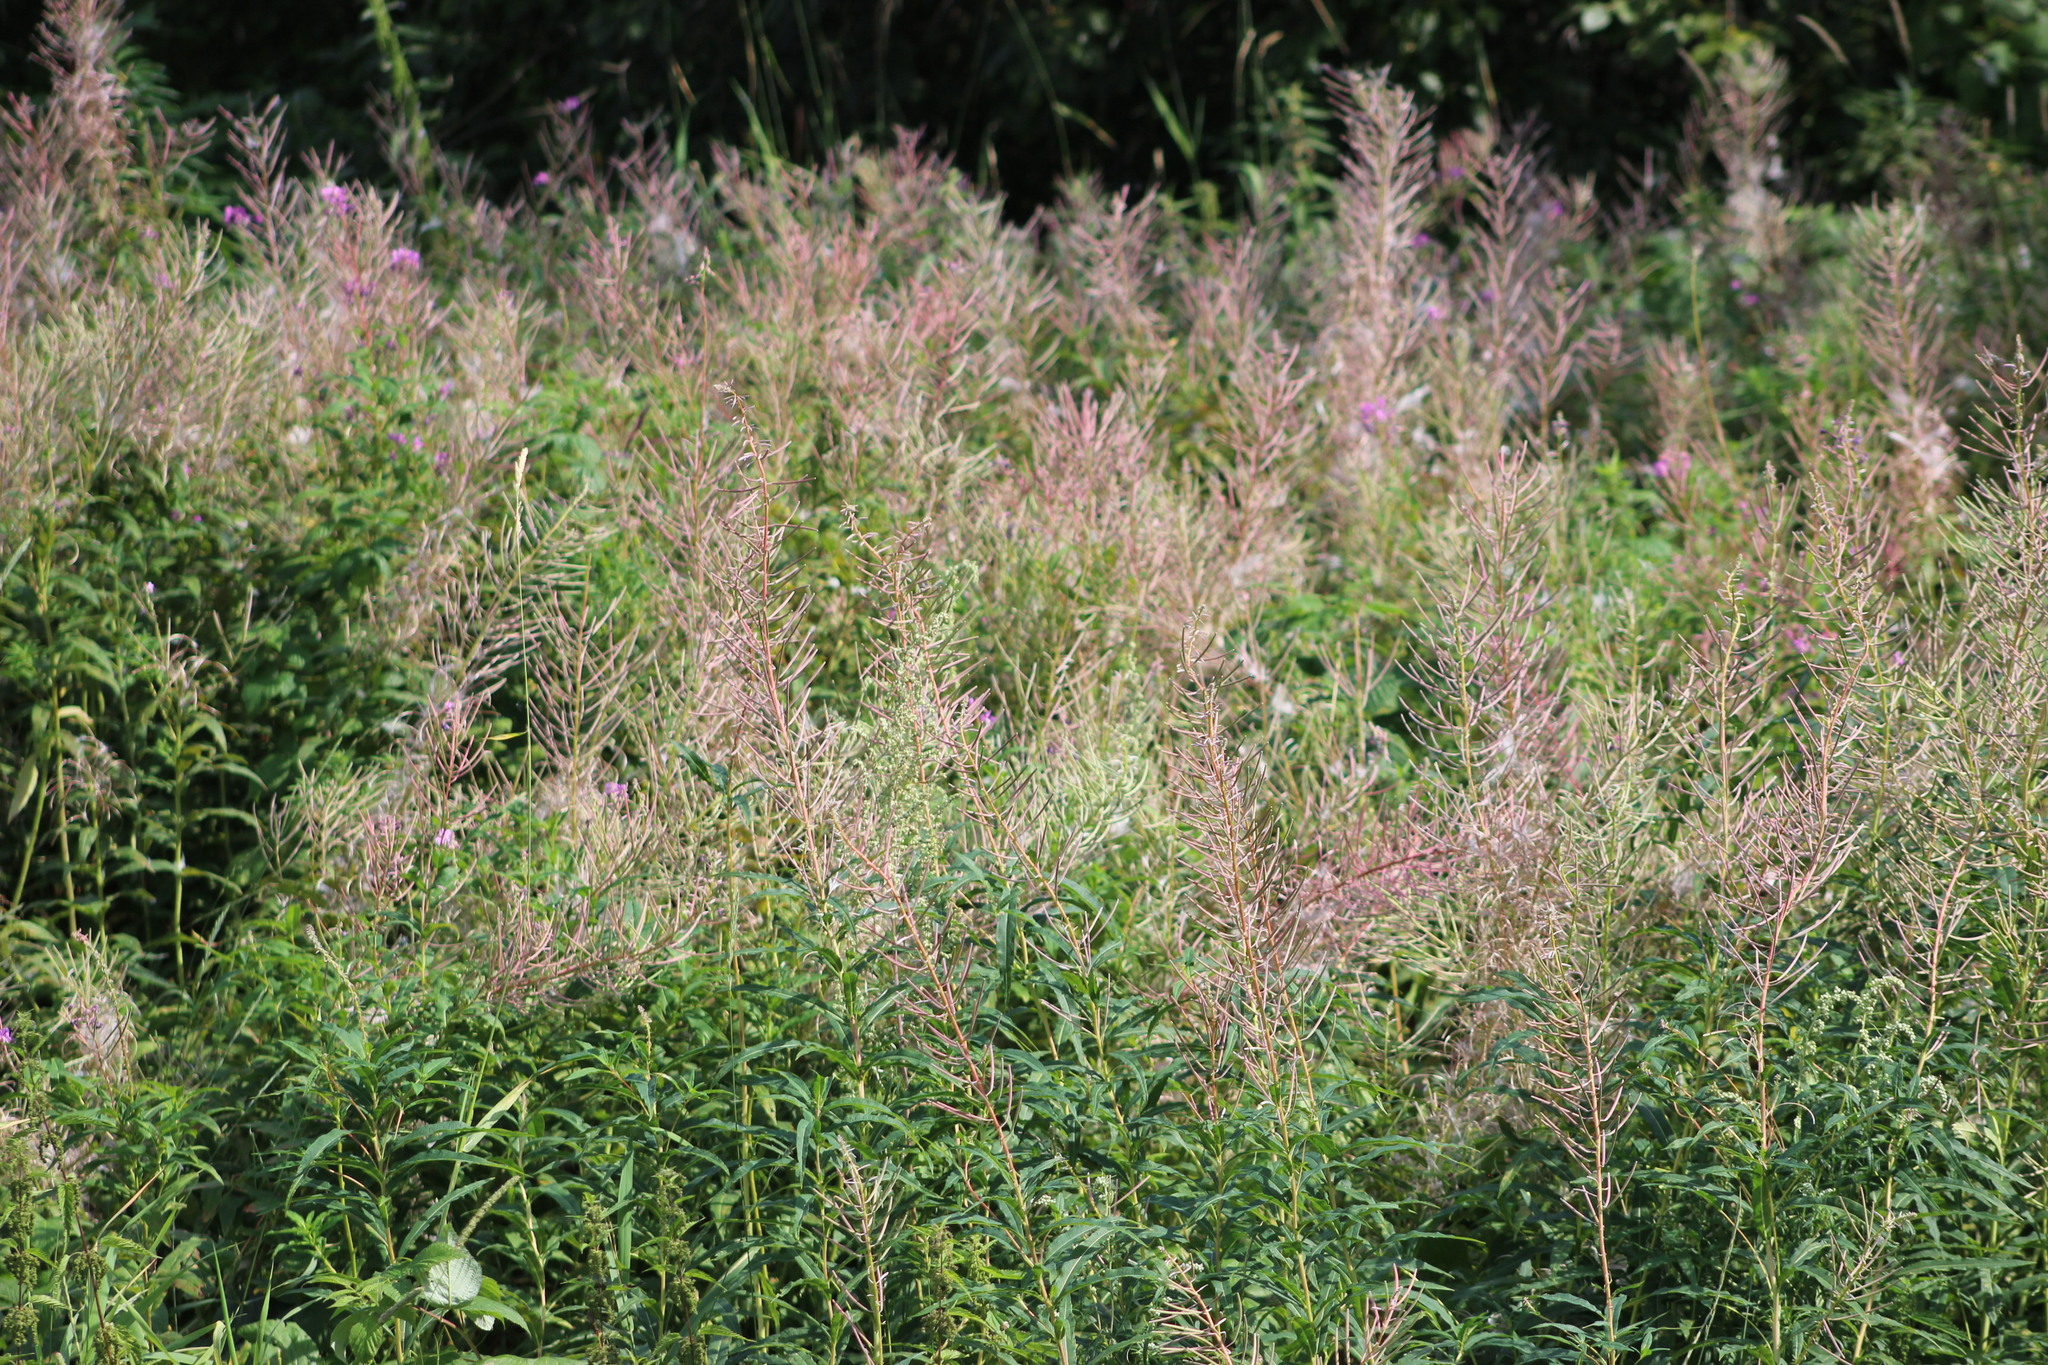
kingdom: Plantae
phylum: Tracheophyta
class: Magnoliopsida
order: Myrtales
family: Onagraceae
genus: Chamaenerion
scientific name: Chamaenerion angustifolium
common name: Fireweed
